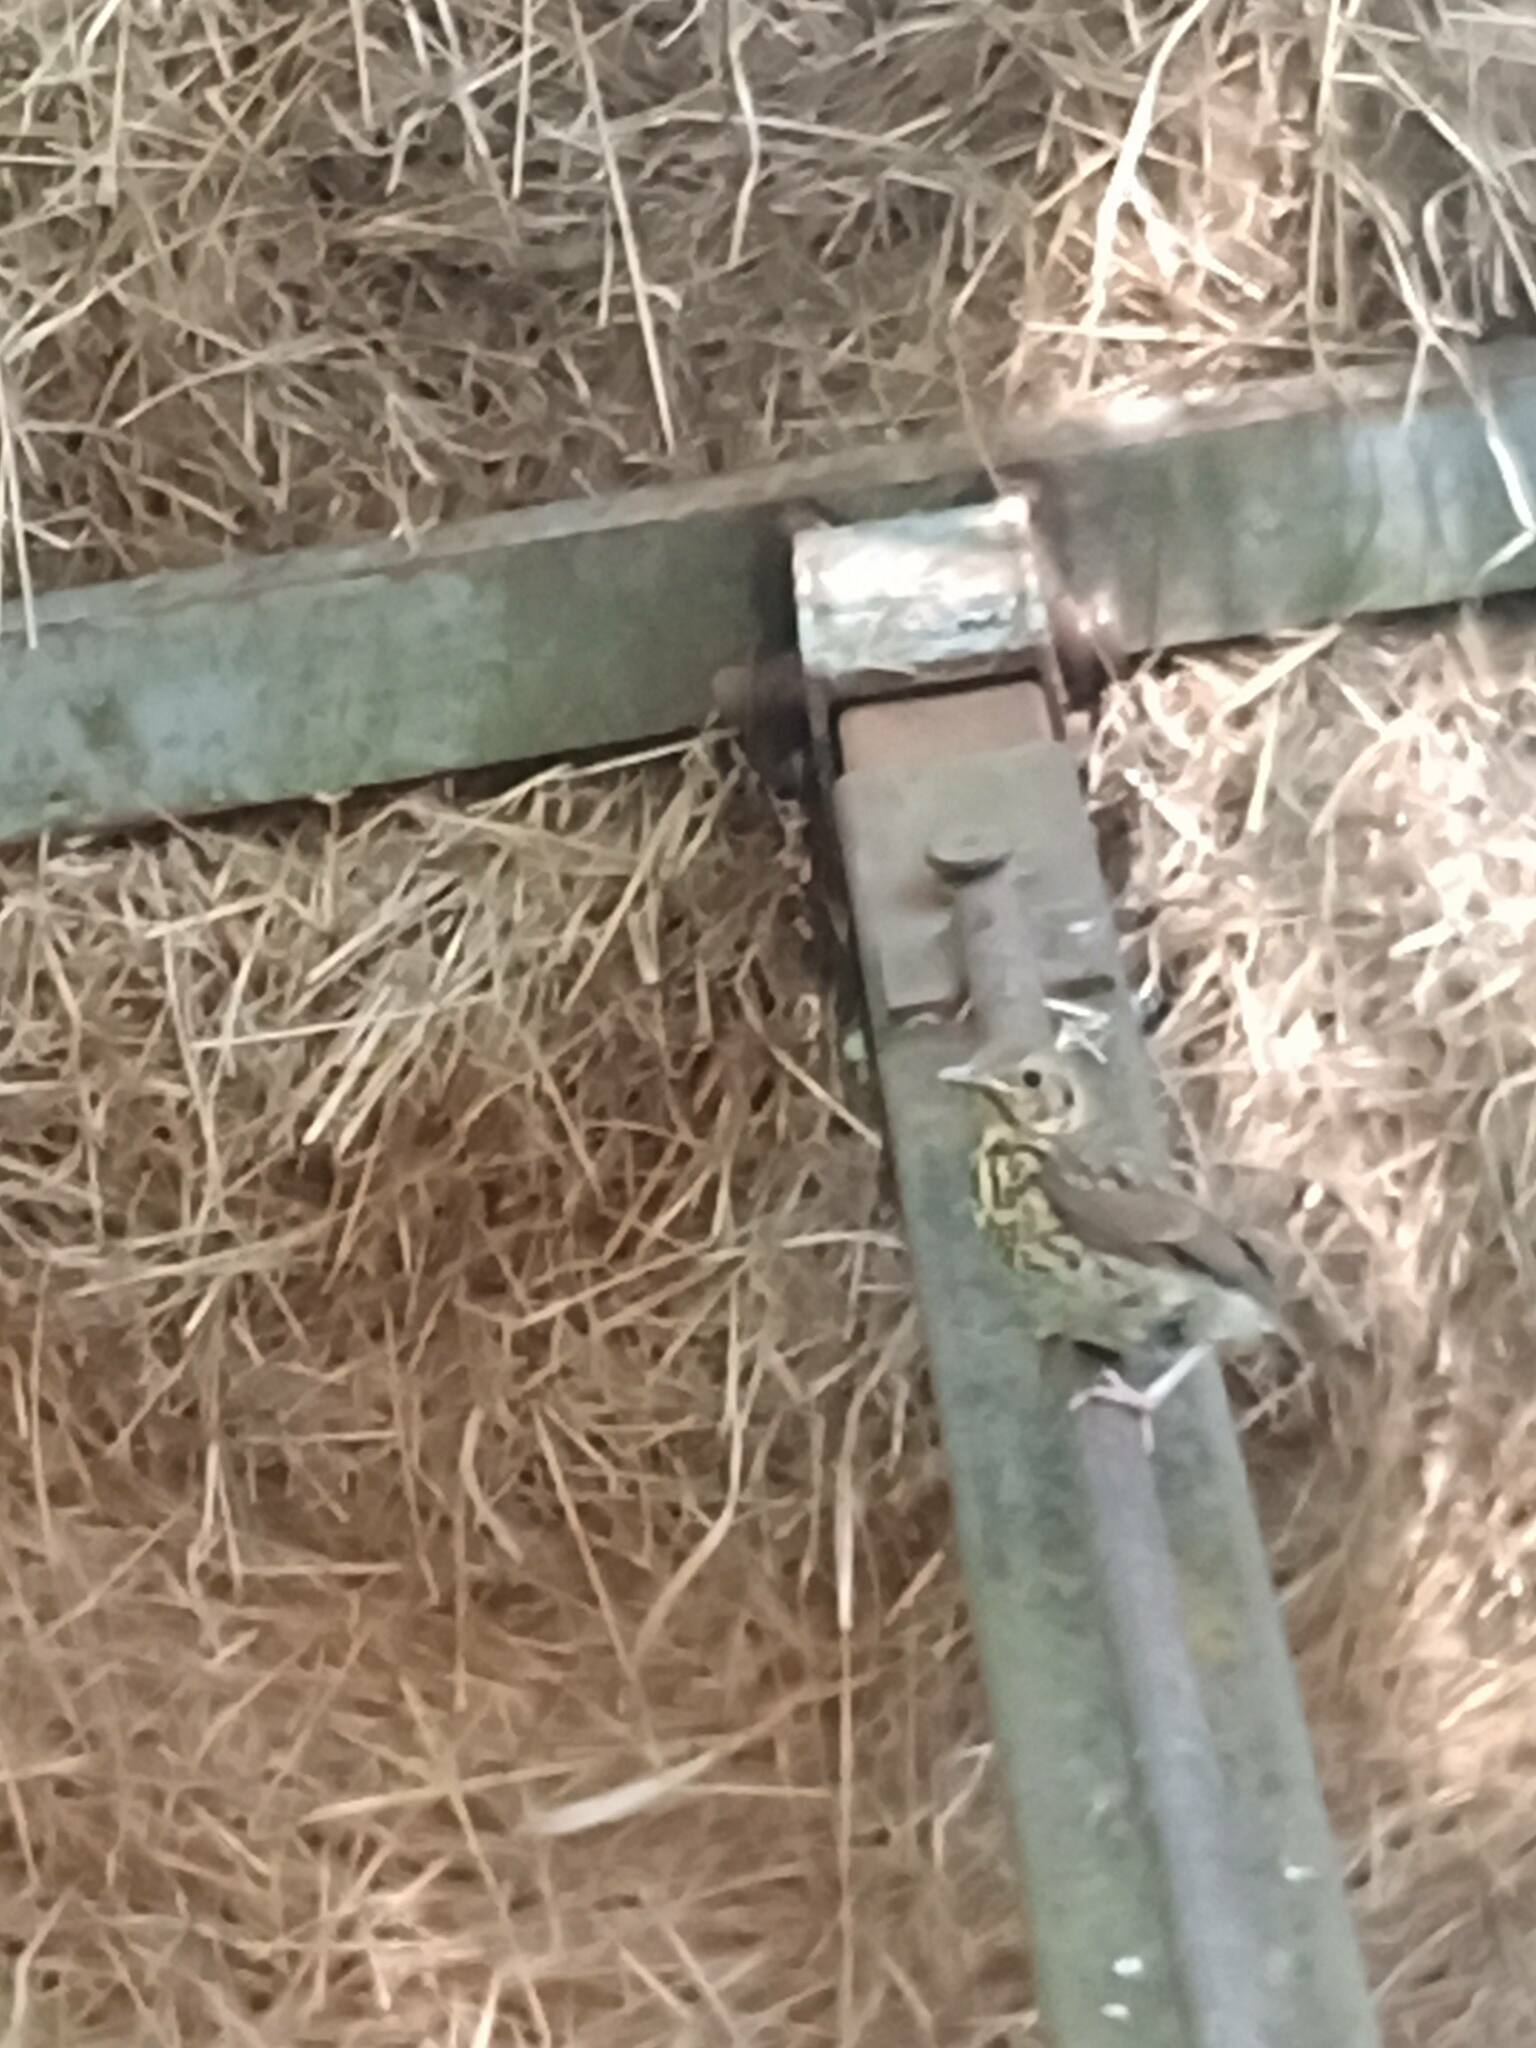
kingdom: Animalia
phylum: Chordata
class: Aves
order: Passeriformes
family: Turdidae
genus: Turdus
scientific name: Turdus philomelos
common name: Song thrush
